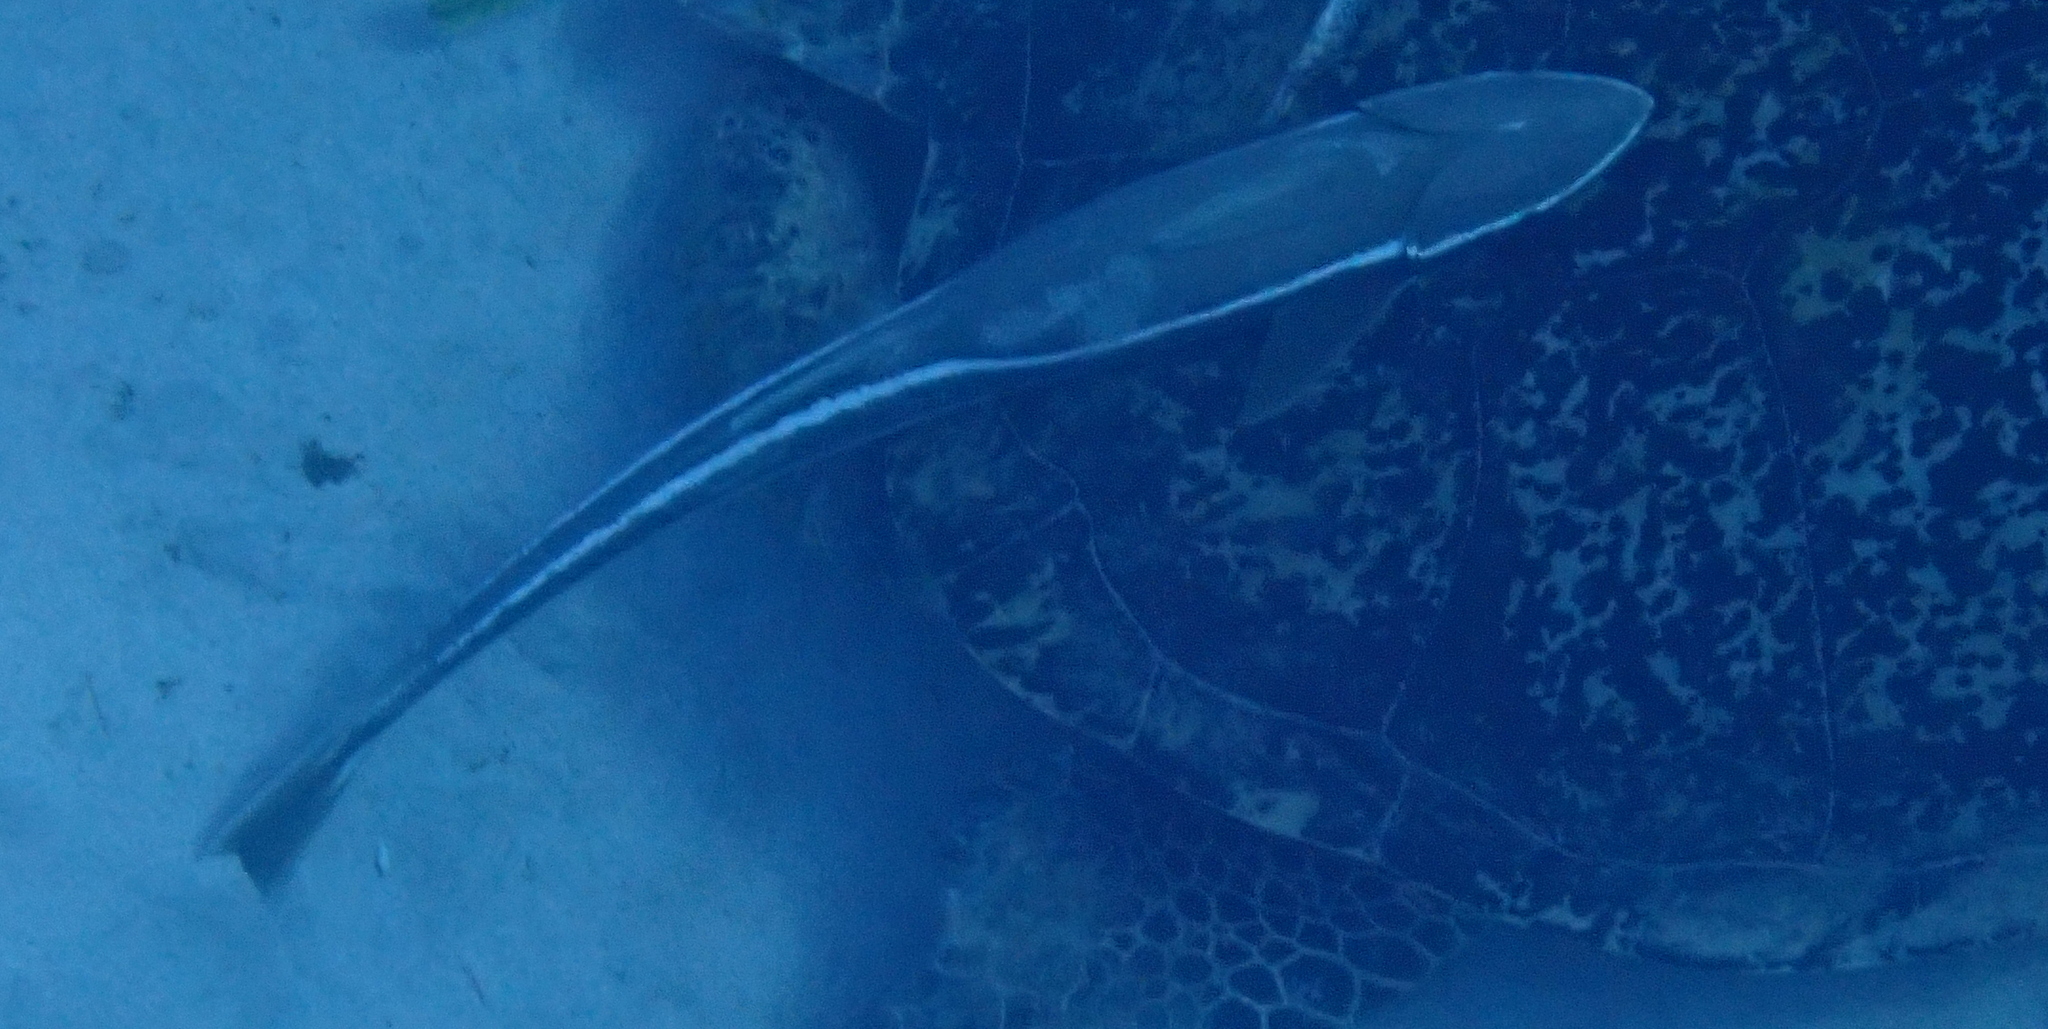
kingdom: Animalia
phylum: Chordata
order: Perciformes
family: Echeneidae
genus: Echeneis
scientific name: Echeneis naucrates
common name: Sharksucker
